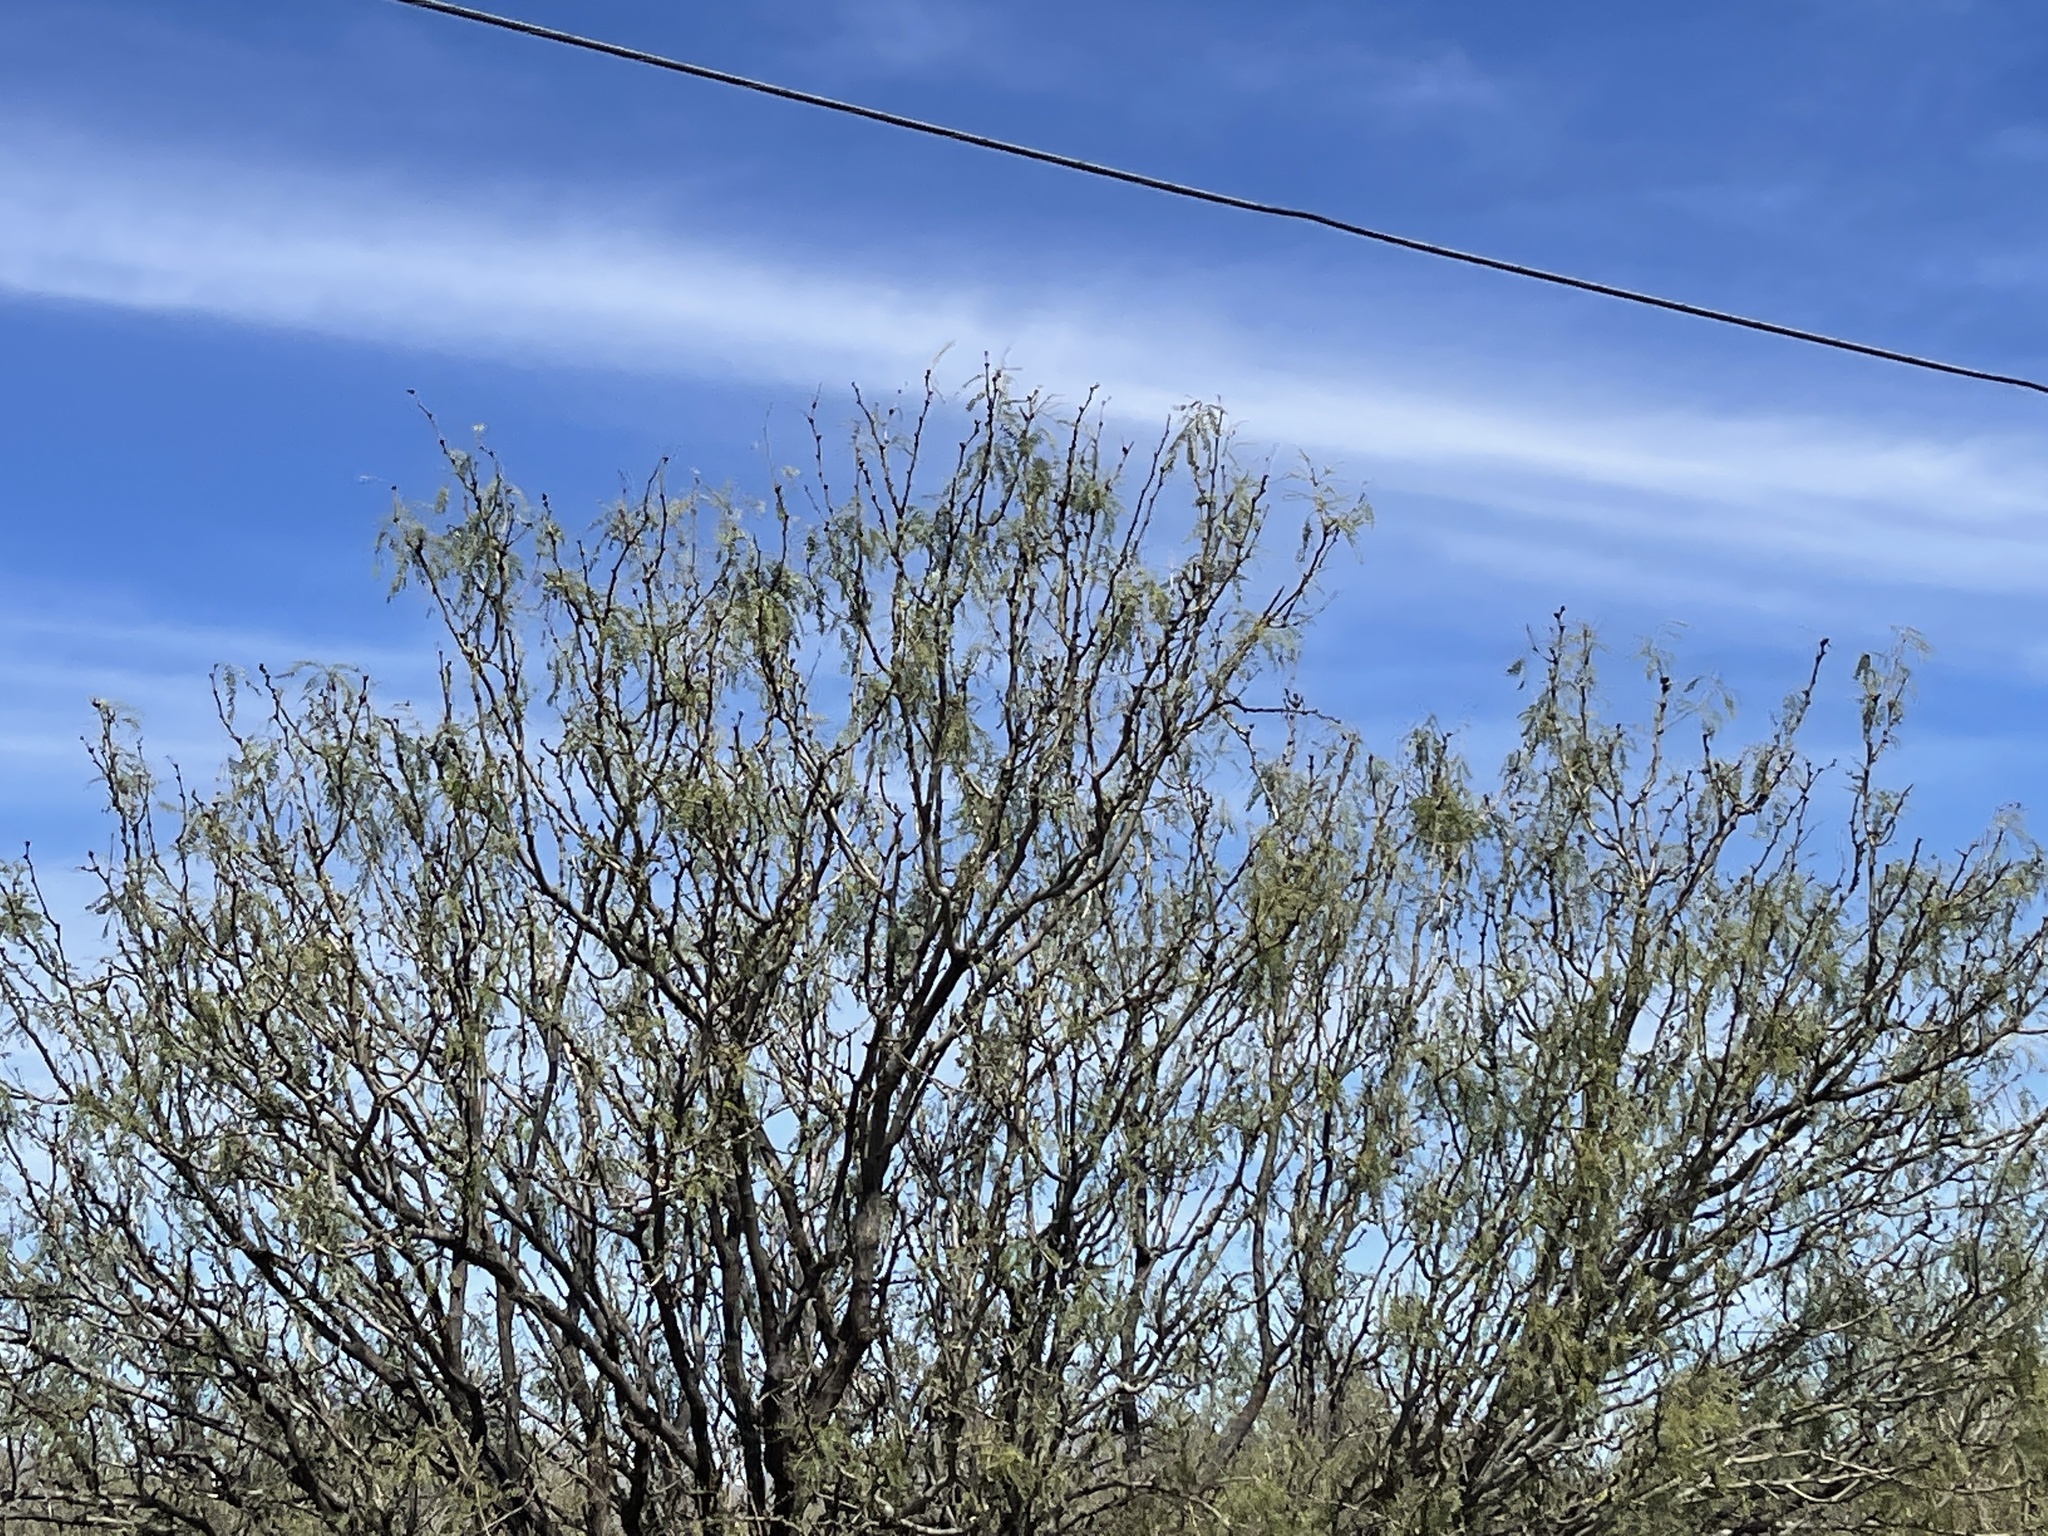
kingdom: Plantae
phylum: Tracheophyta
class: Magnoliopsida
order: Fabales
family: Fabaceae
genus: Prosopis
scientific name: Prosopis velutina
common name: Velvet mesquite
